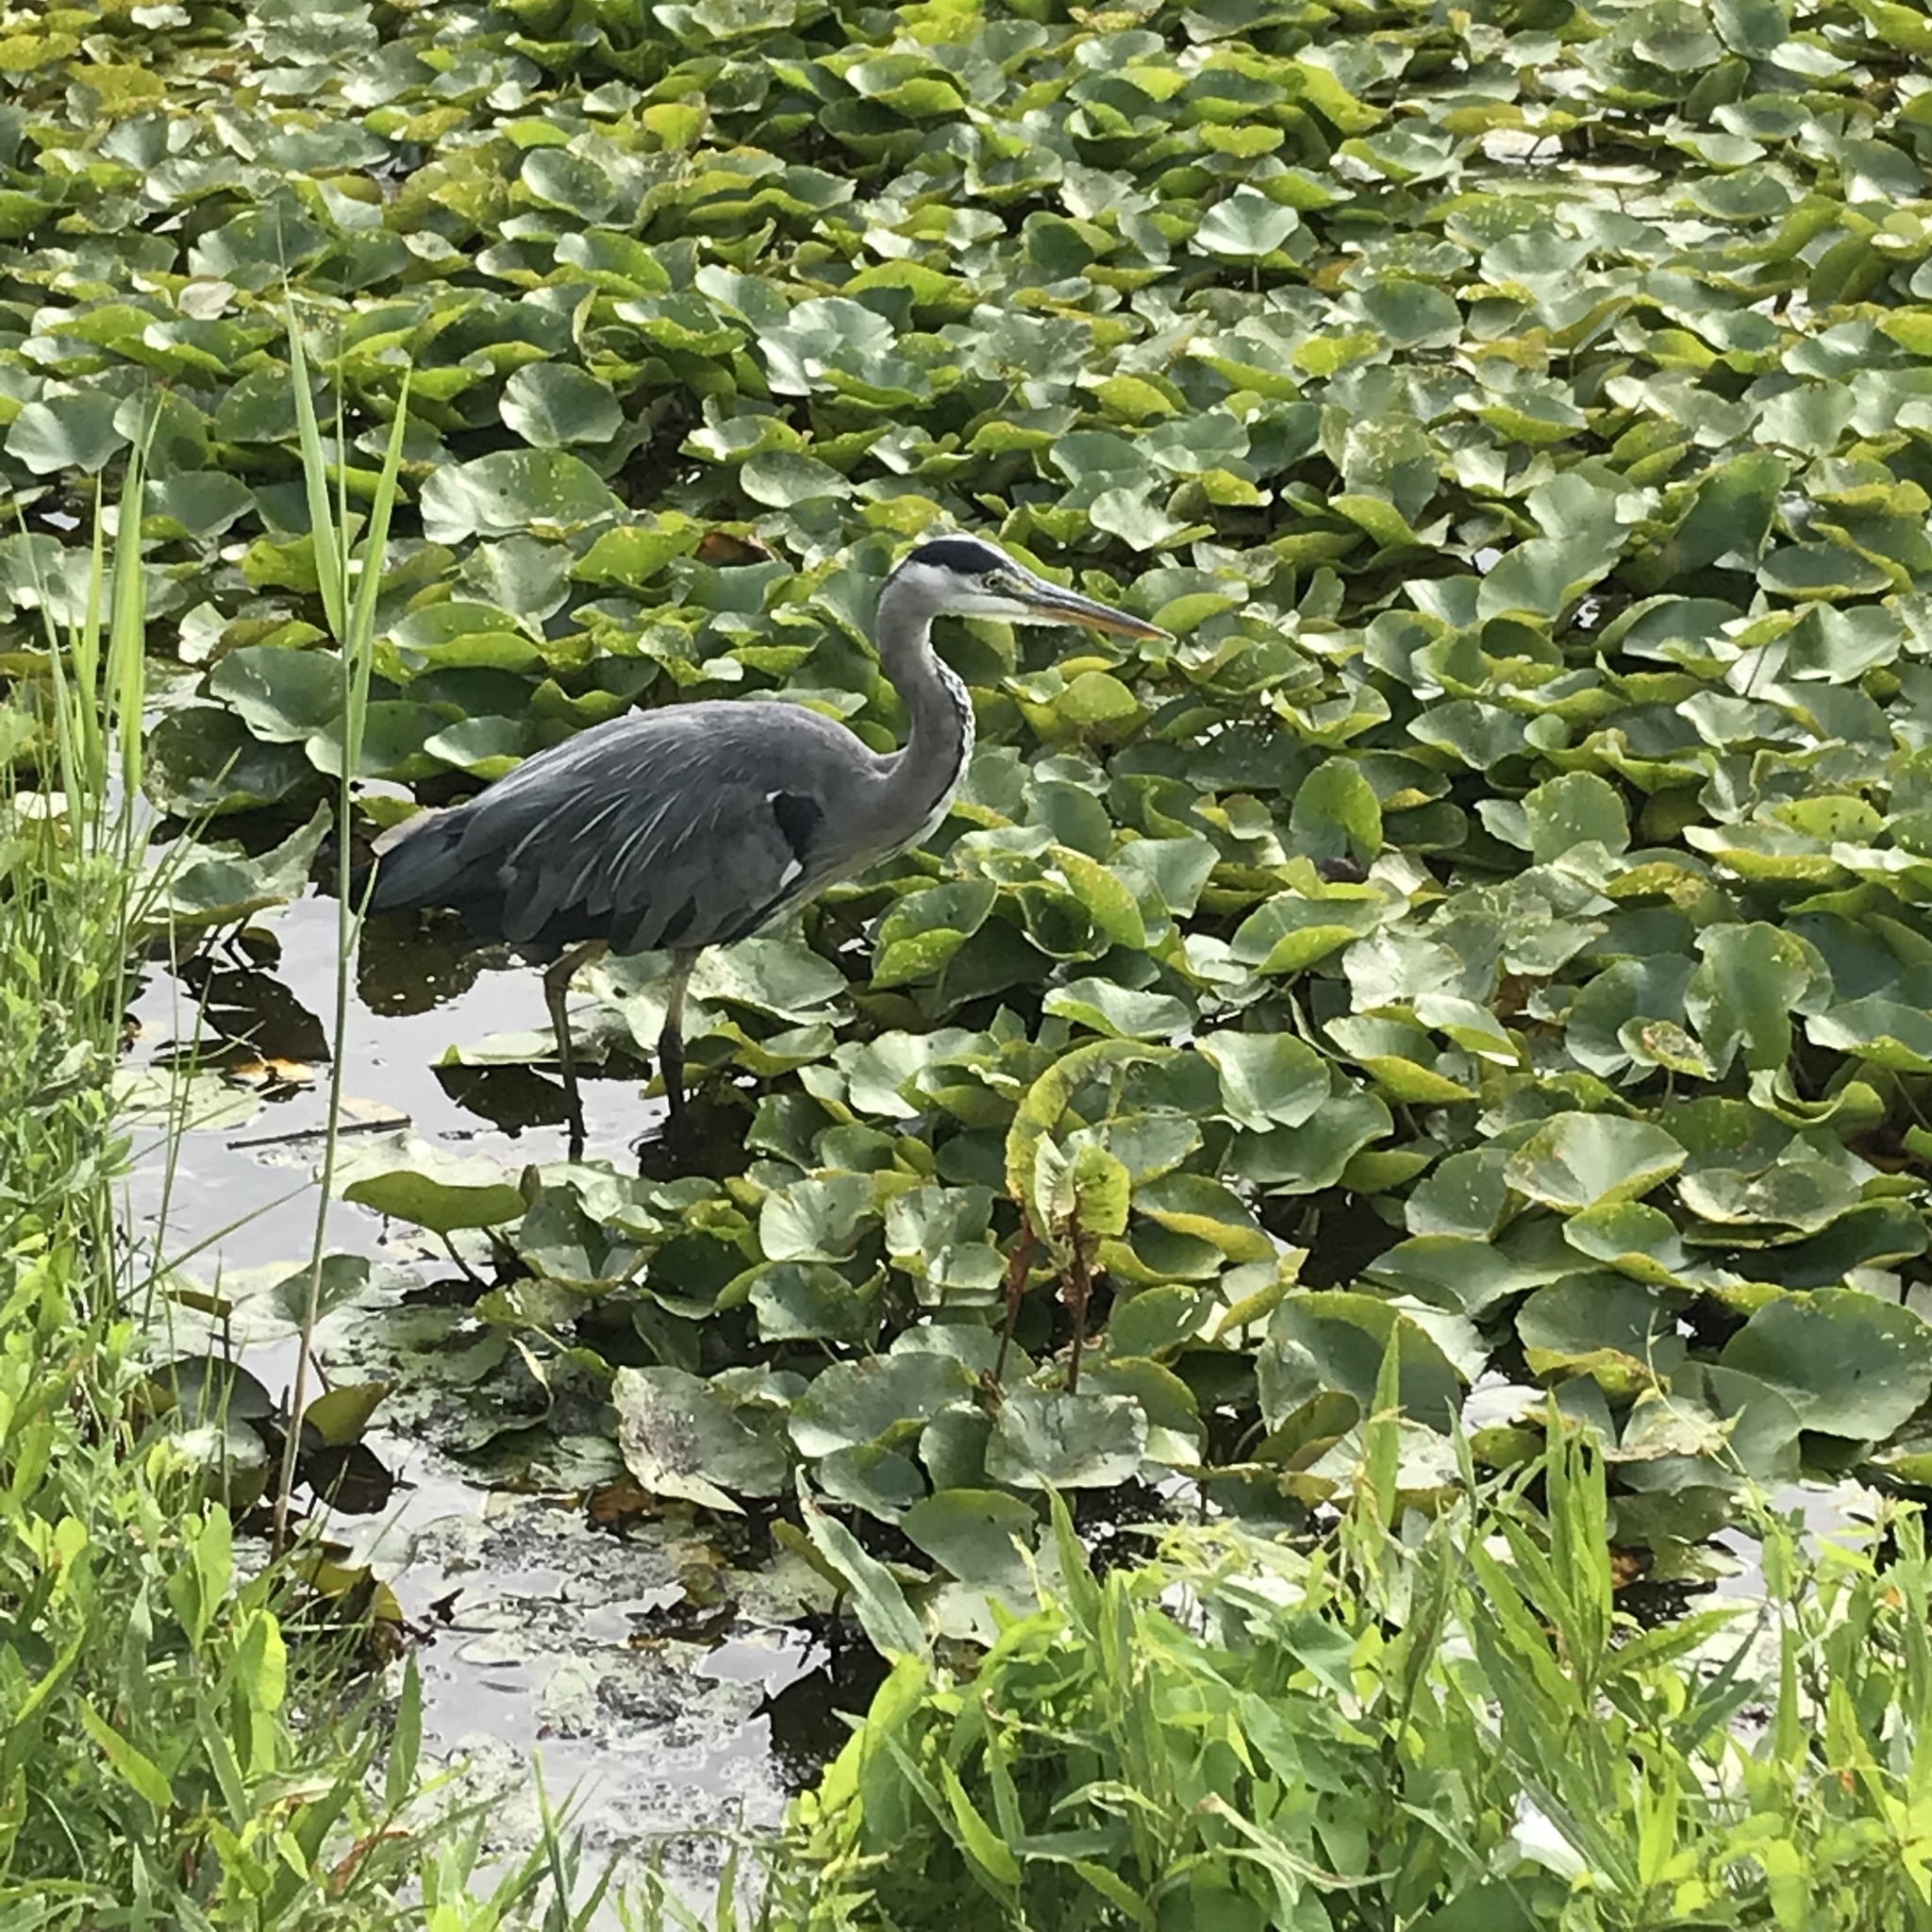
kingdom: Animalia
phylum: Chordata
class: Aves
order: Pelecaniformes
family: Ardeidae
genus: Ardea
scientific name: Ardea cinerea
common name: Grey heron
